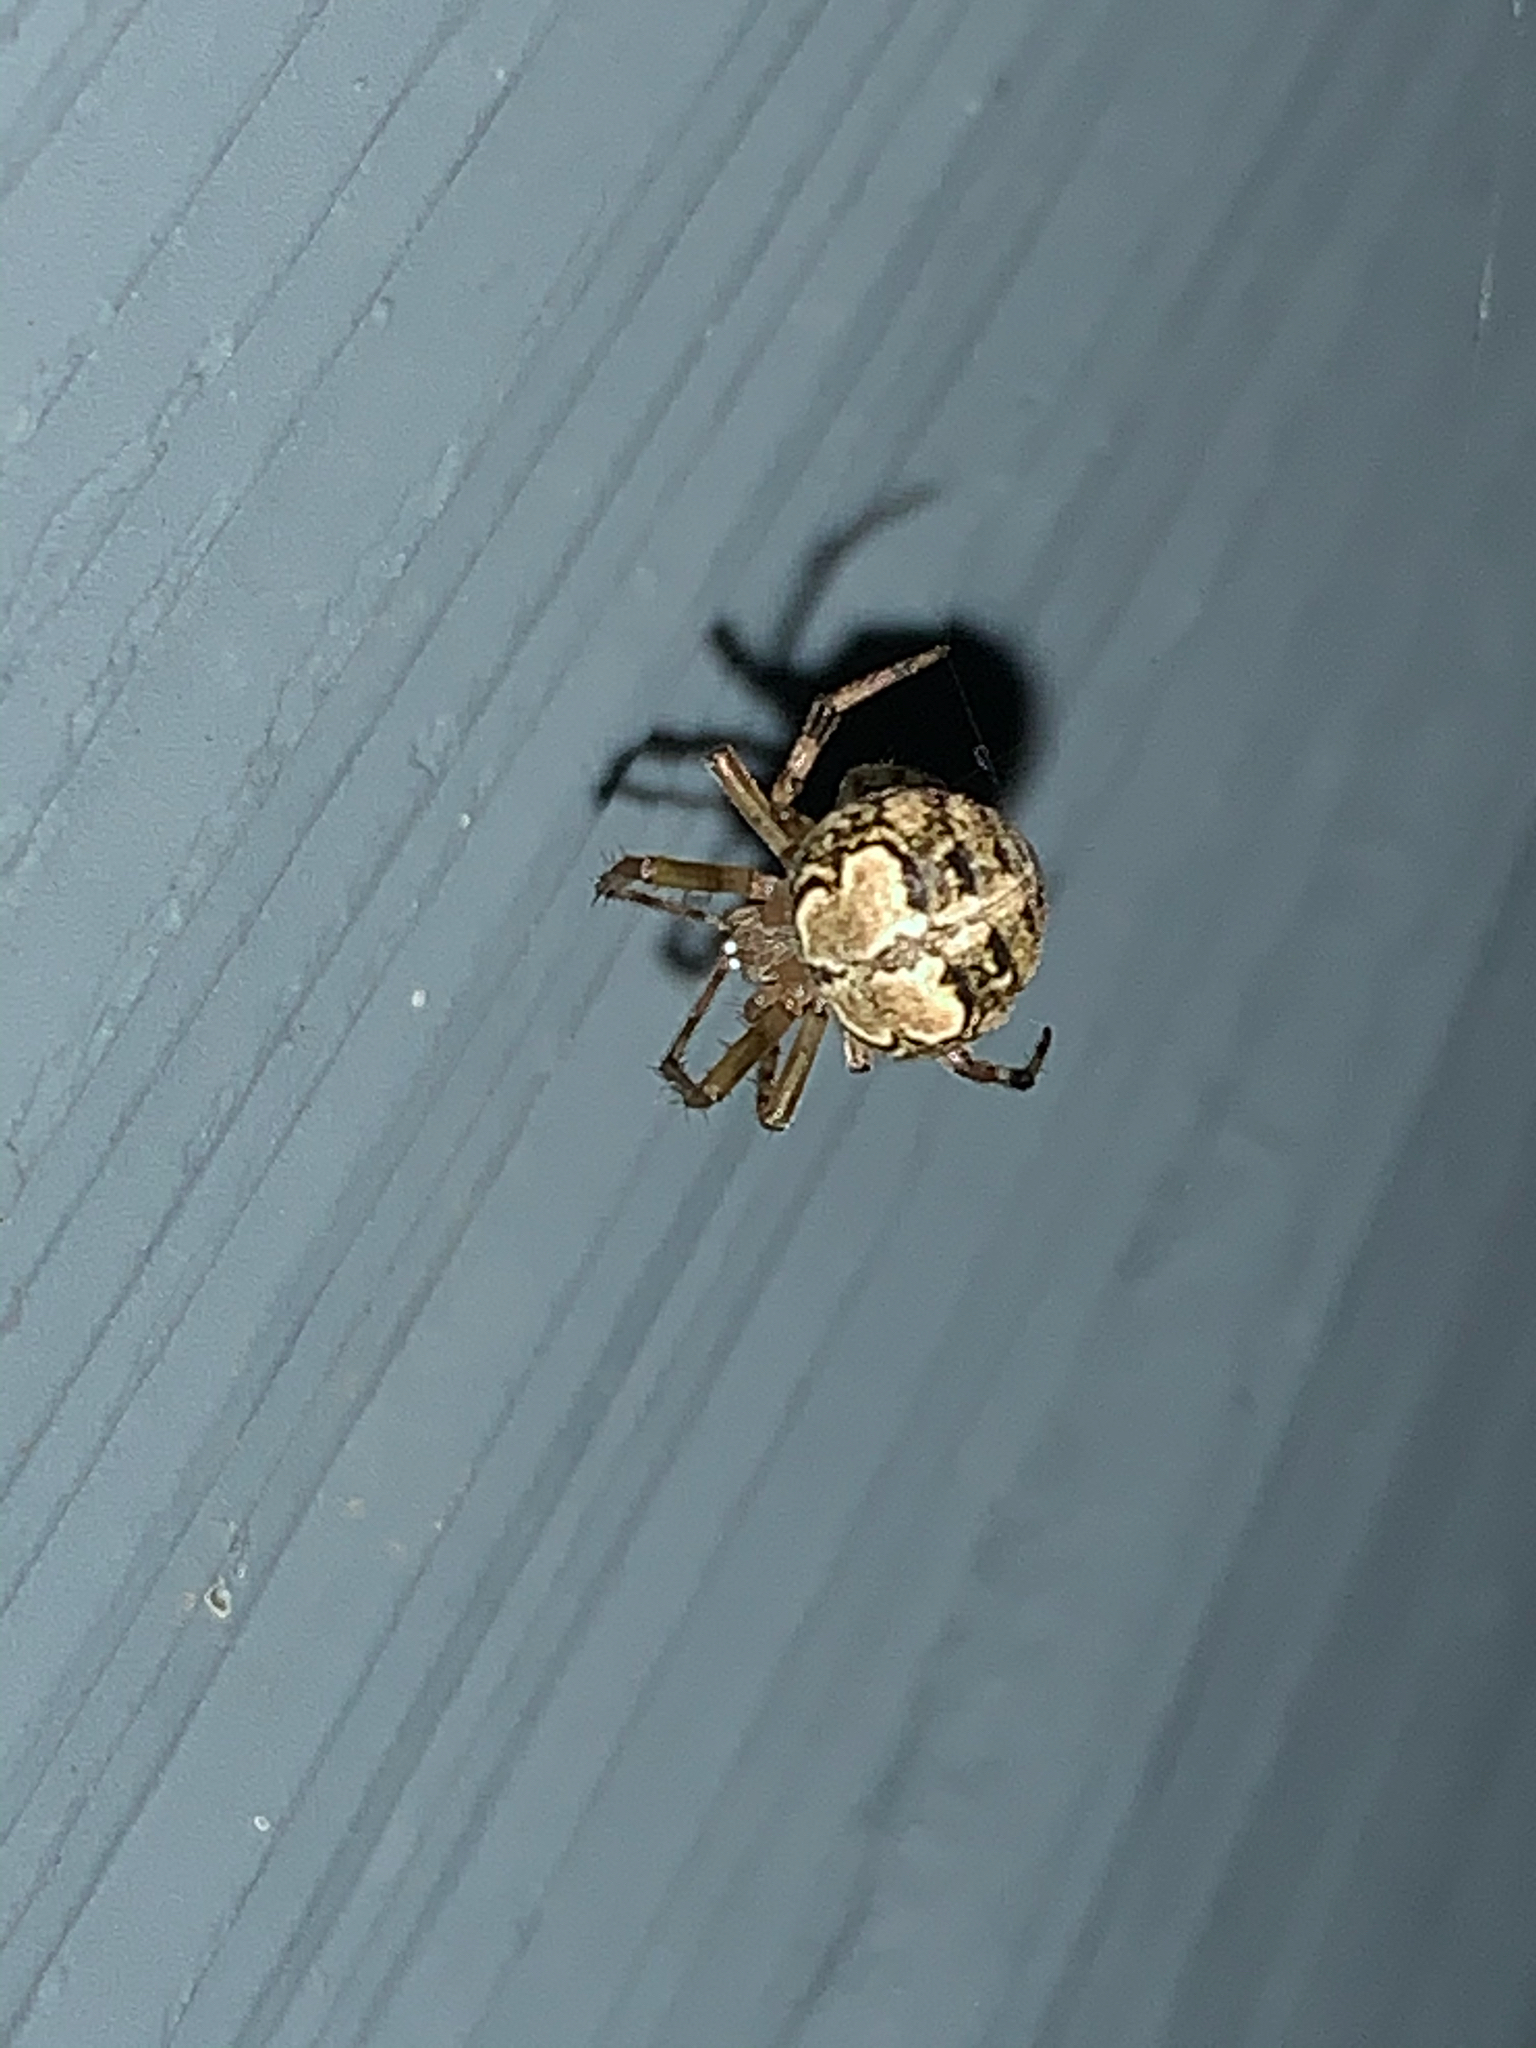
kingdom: Animalia
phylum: Arthropoda
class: Arachnida
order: Araneae
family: Araneidae
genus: Araneus
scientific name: Araneus pegnia
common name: Orb weavers
